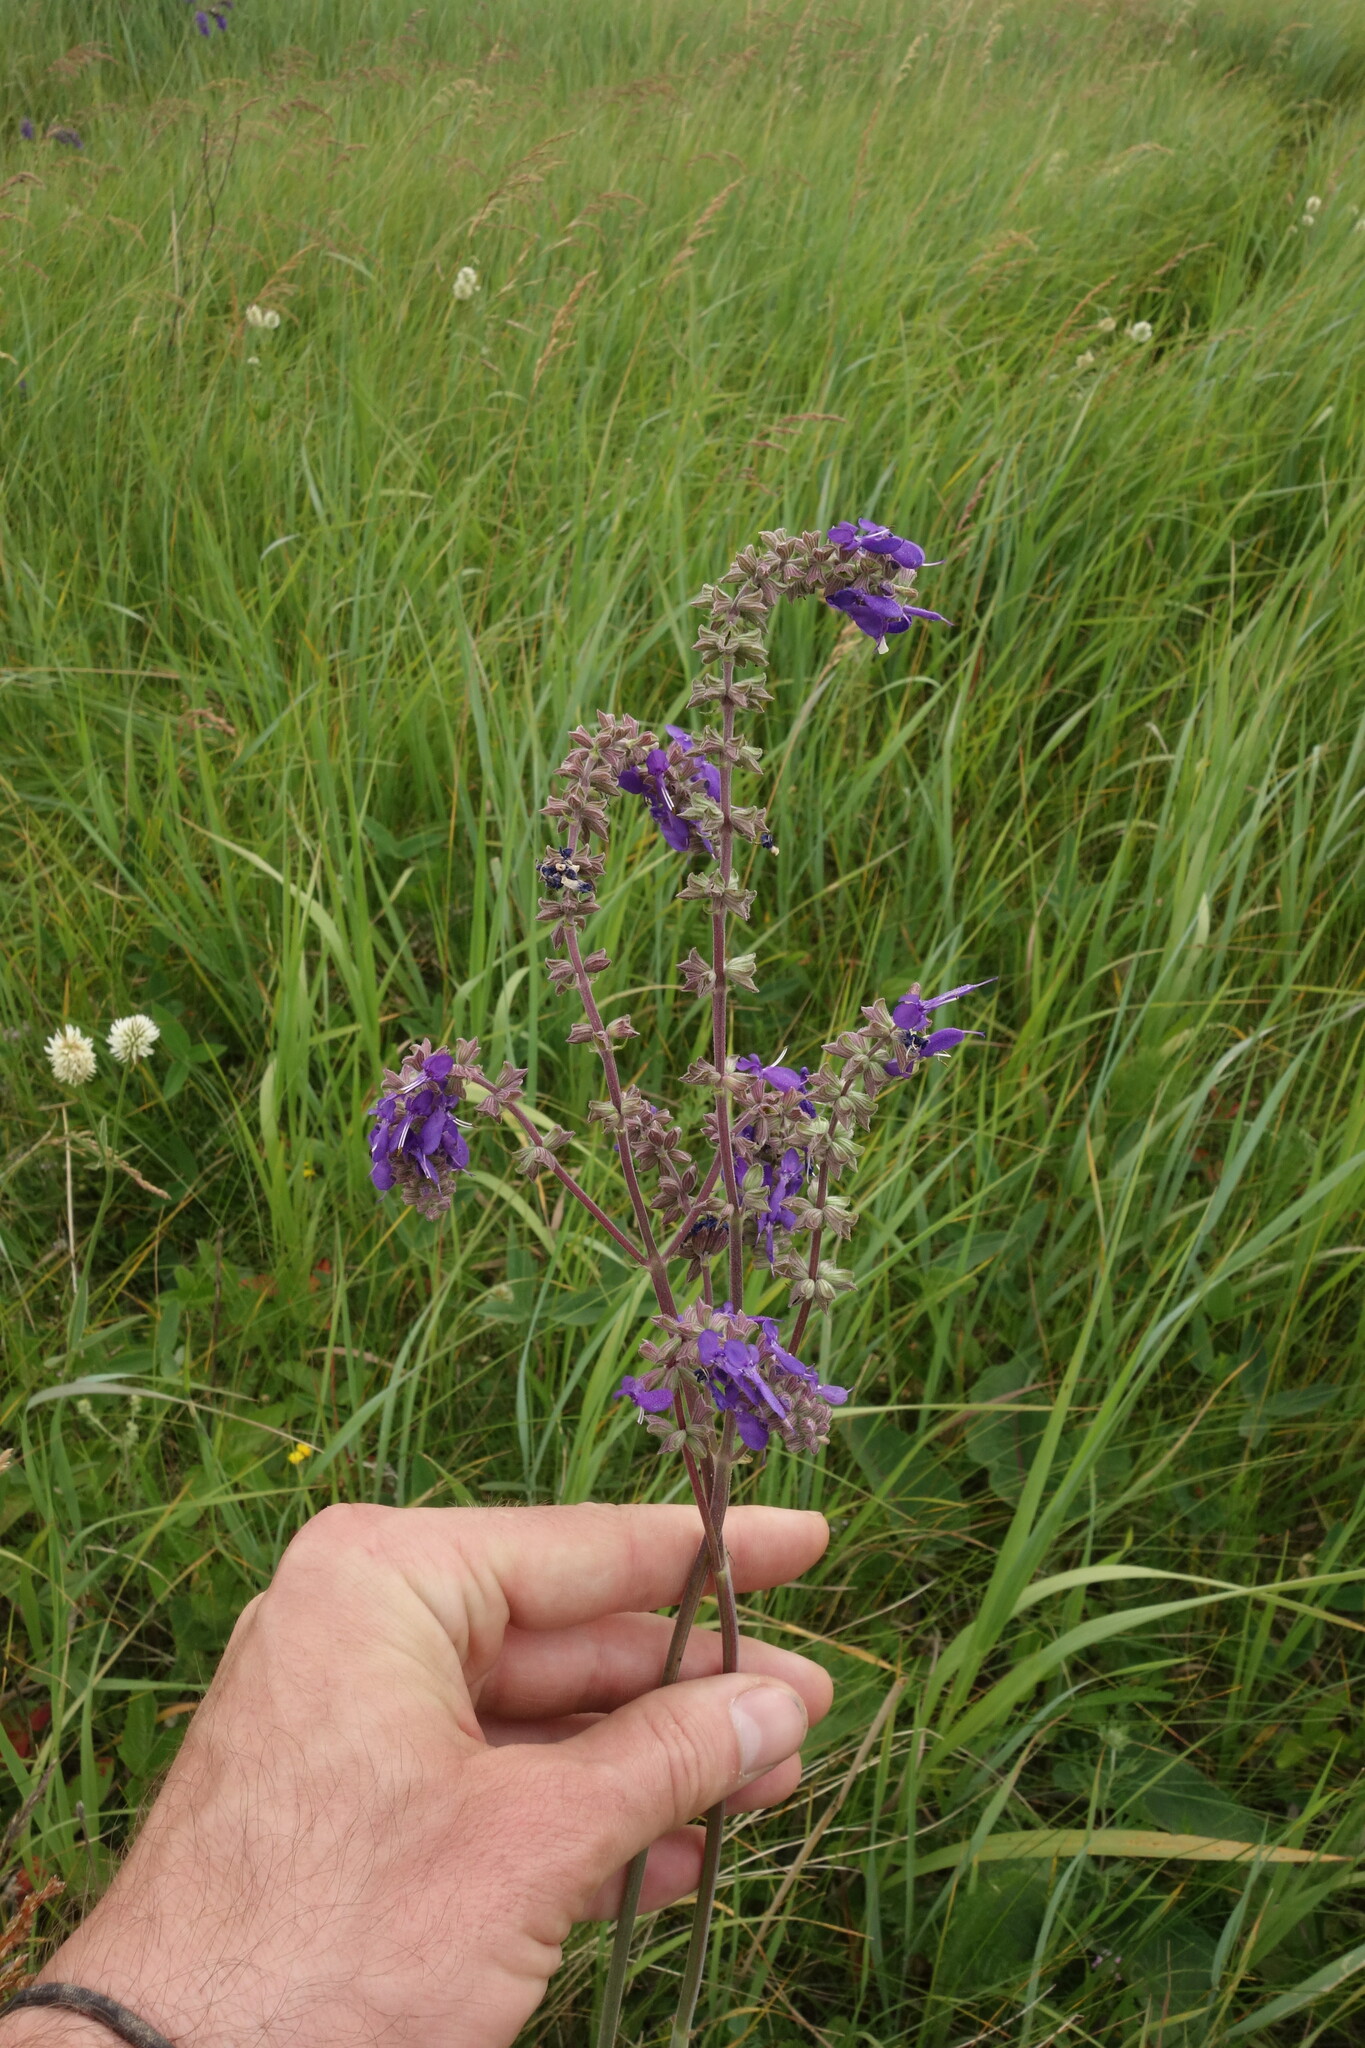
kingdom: Plantae
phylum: Tracheophyta
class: Magnoliopsida
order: Lamiales
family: Lamiaceae
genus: Salvia
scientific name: Salvia nutans
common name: Nodding sage
